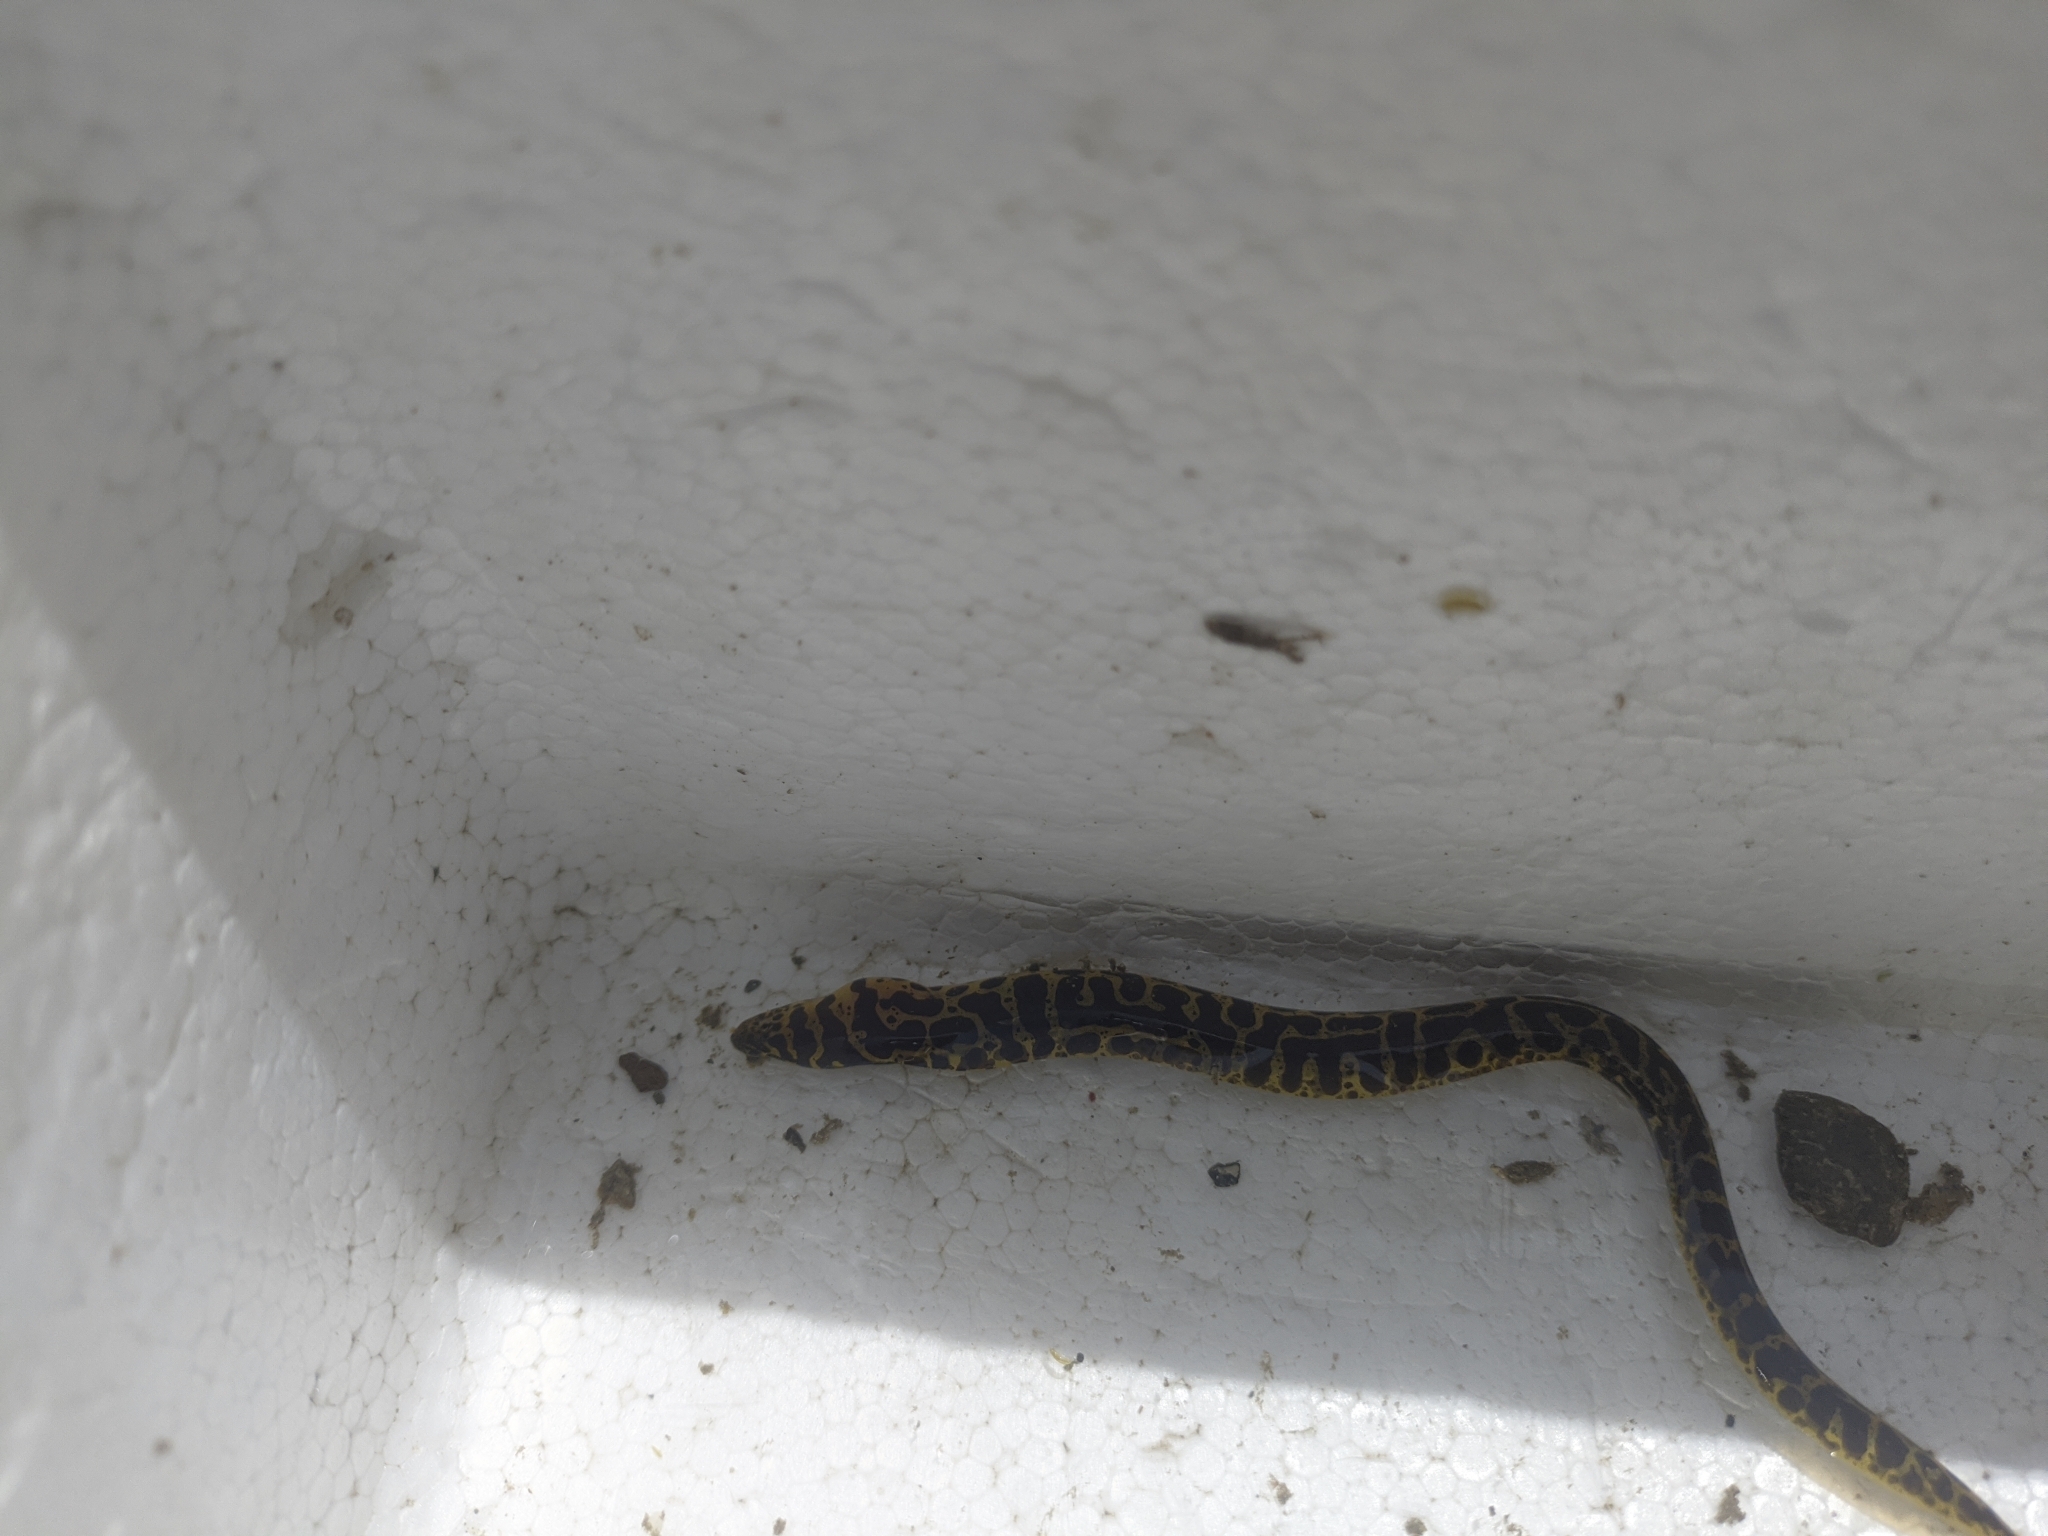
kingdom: Animalia
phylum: Chordata
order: Anguilliformes
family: Muraenidae
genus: Echidna
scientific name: Echidna catenata
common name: Chain moray
